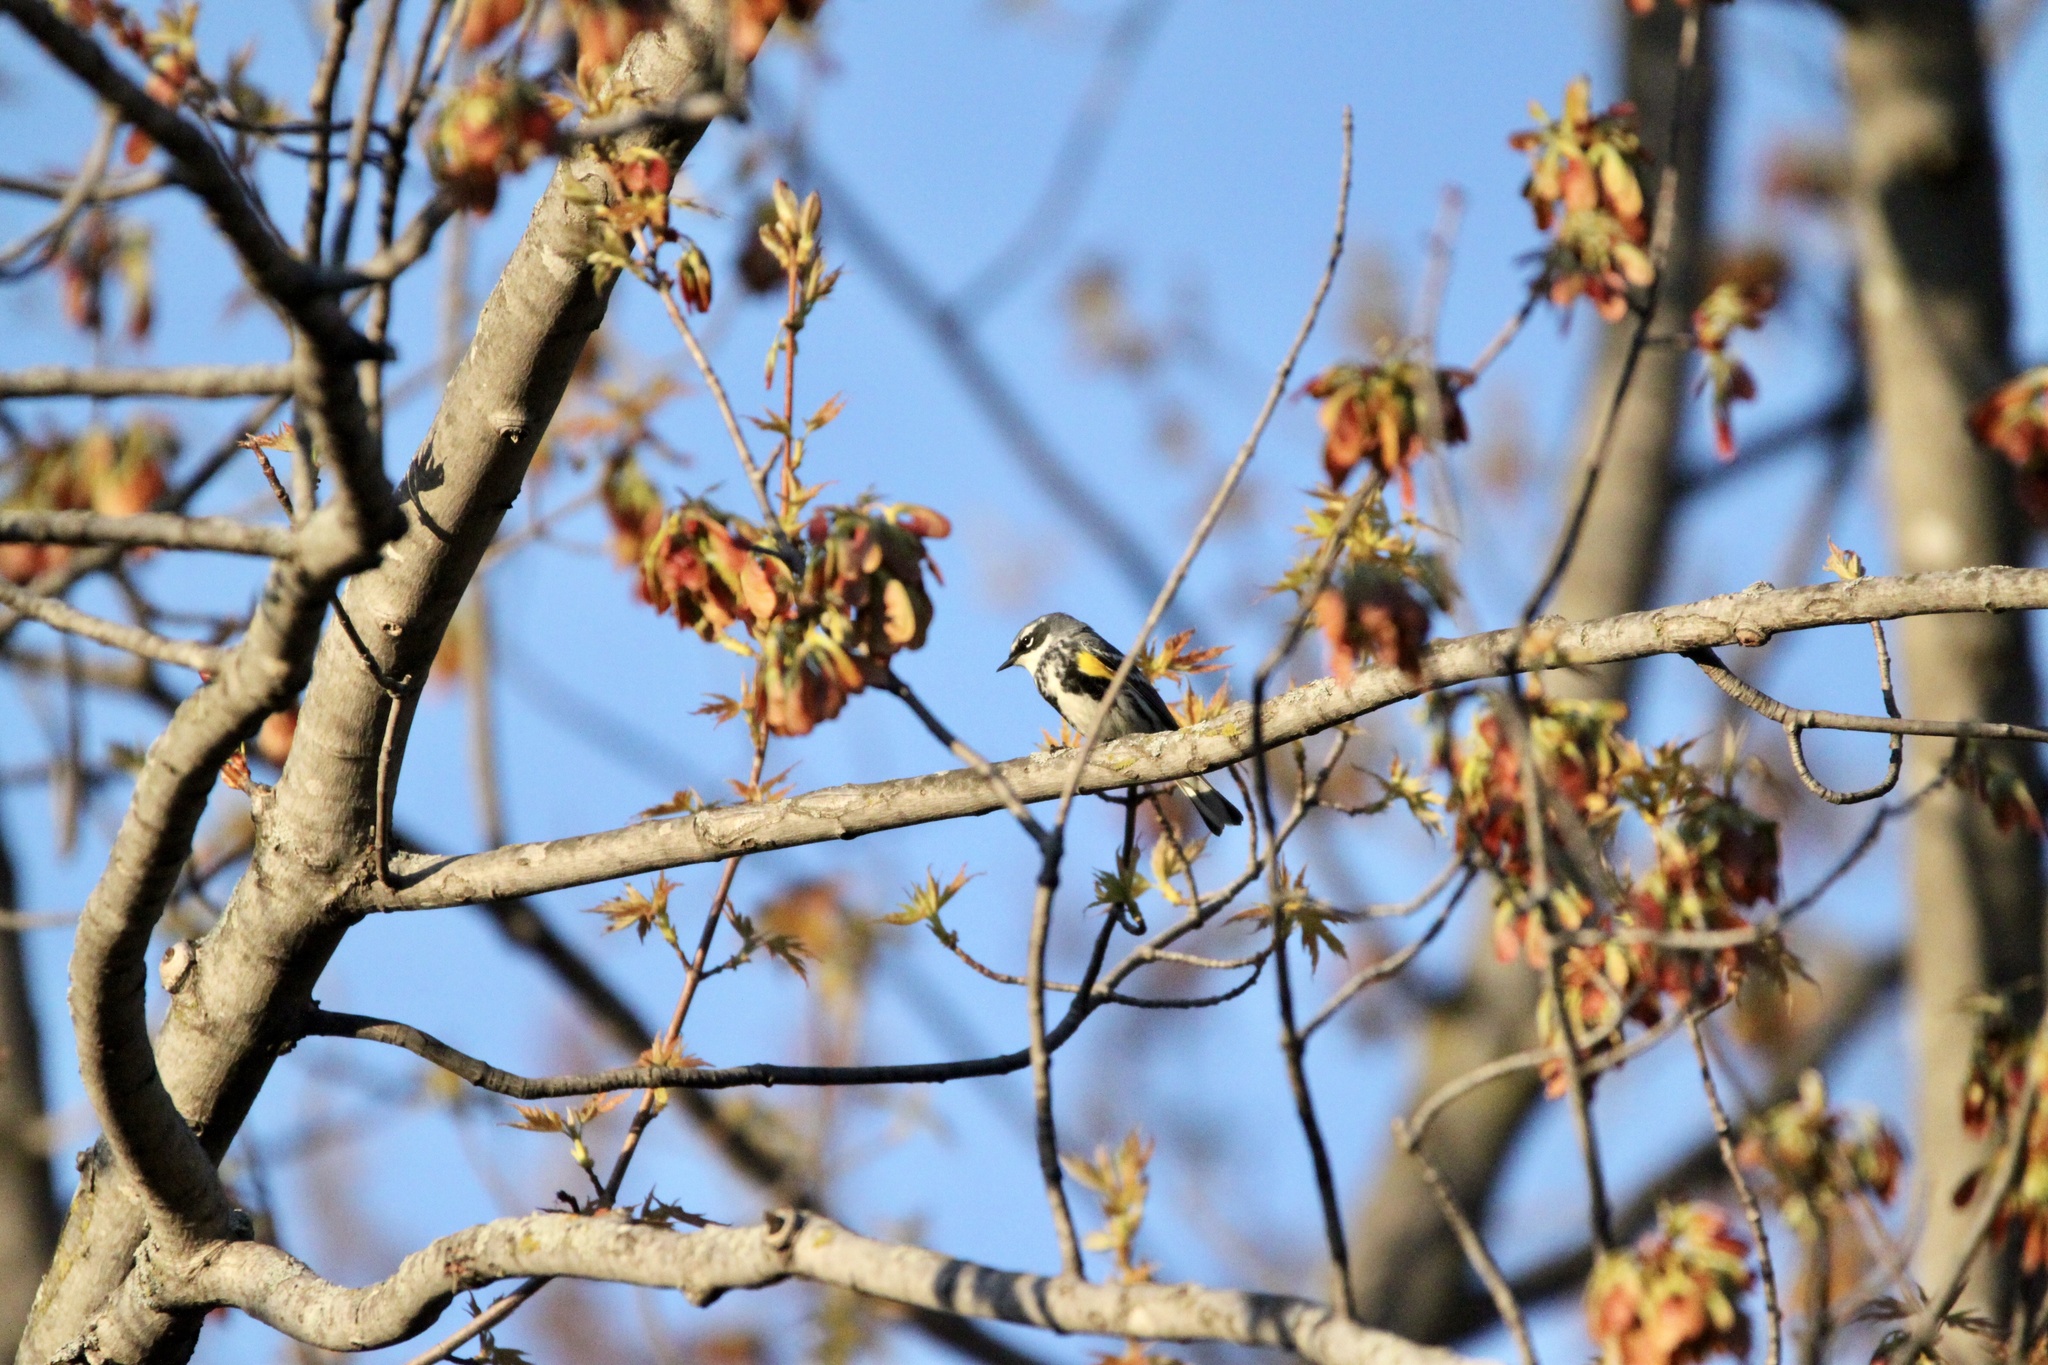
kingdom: Animalia
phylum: Chordata
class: Aves
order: Passeriformes
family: Parulidae
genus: Setophaga
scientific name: Setophaga coronata
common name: Myrtle warbler
